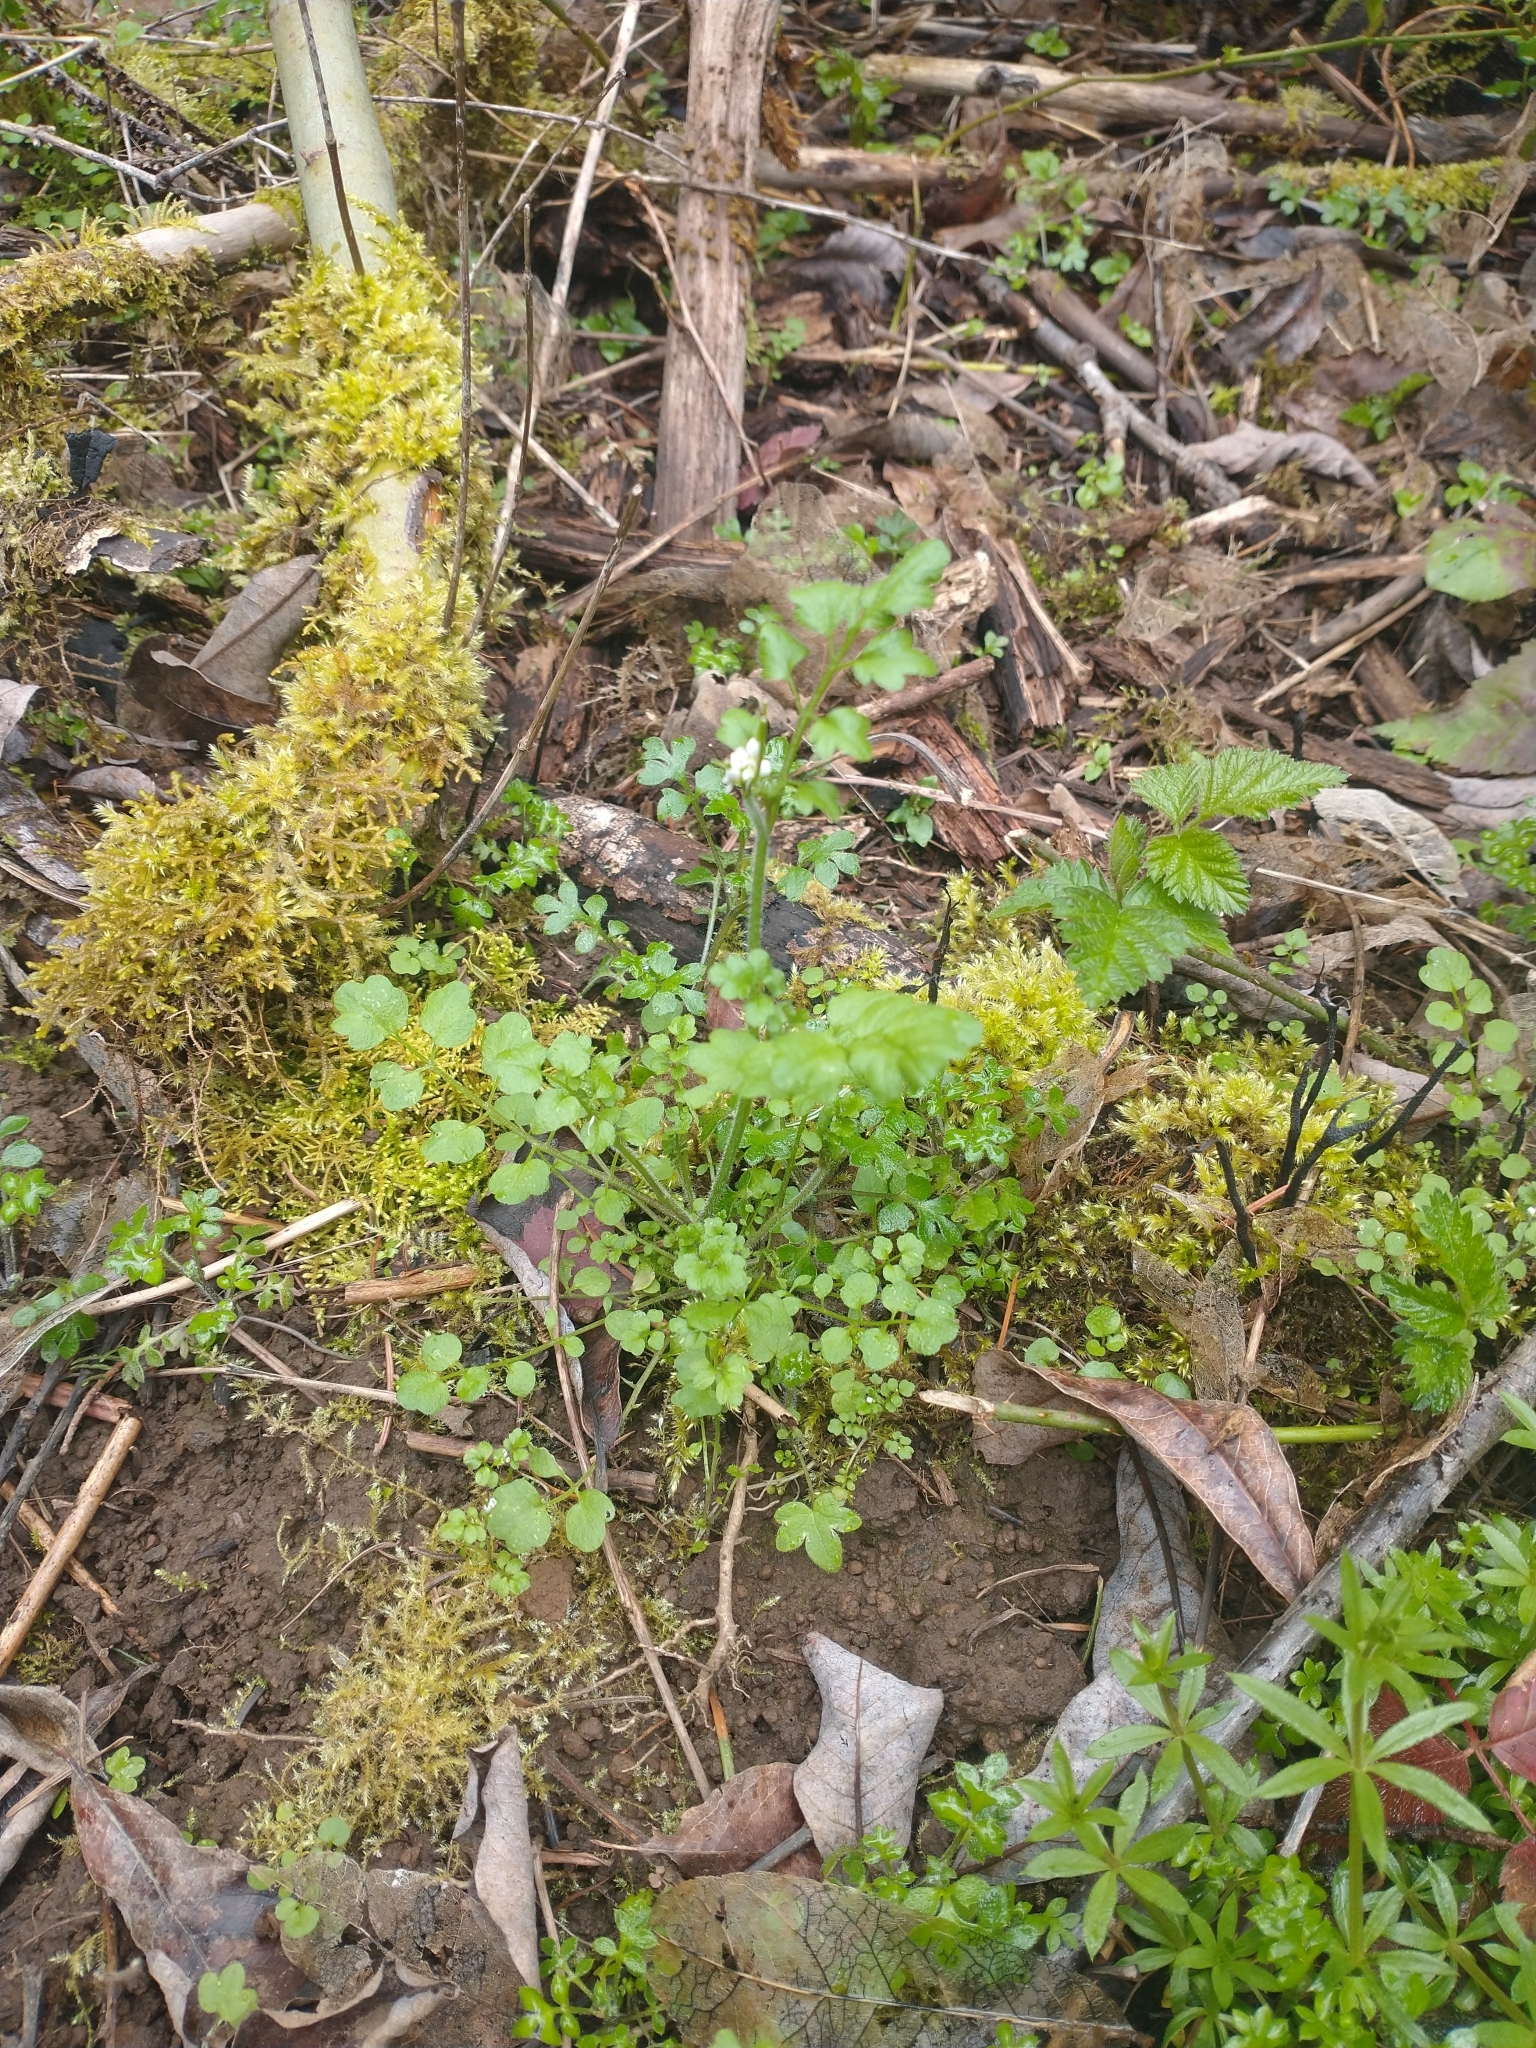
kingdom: Plantae
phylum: Tracheophyta
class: Magnoliopsida
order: Boraginales
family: Hydrophyllaceae
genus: Nemophila
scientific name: Nemophila parviflora
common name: Small-flowered baby-blue-eyes
